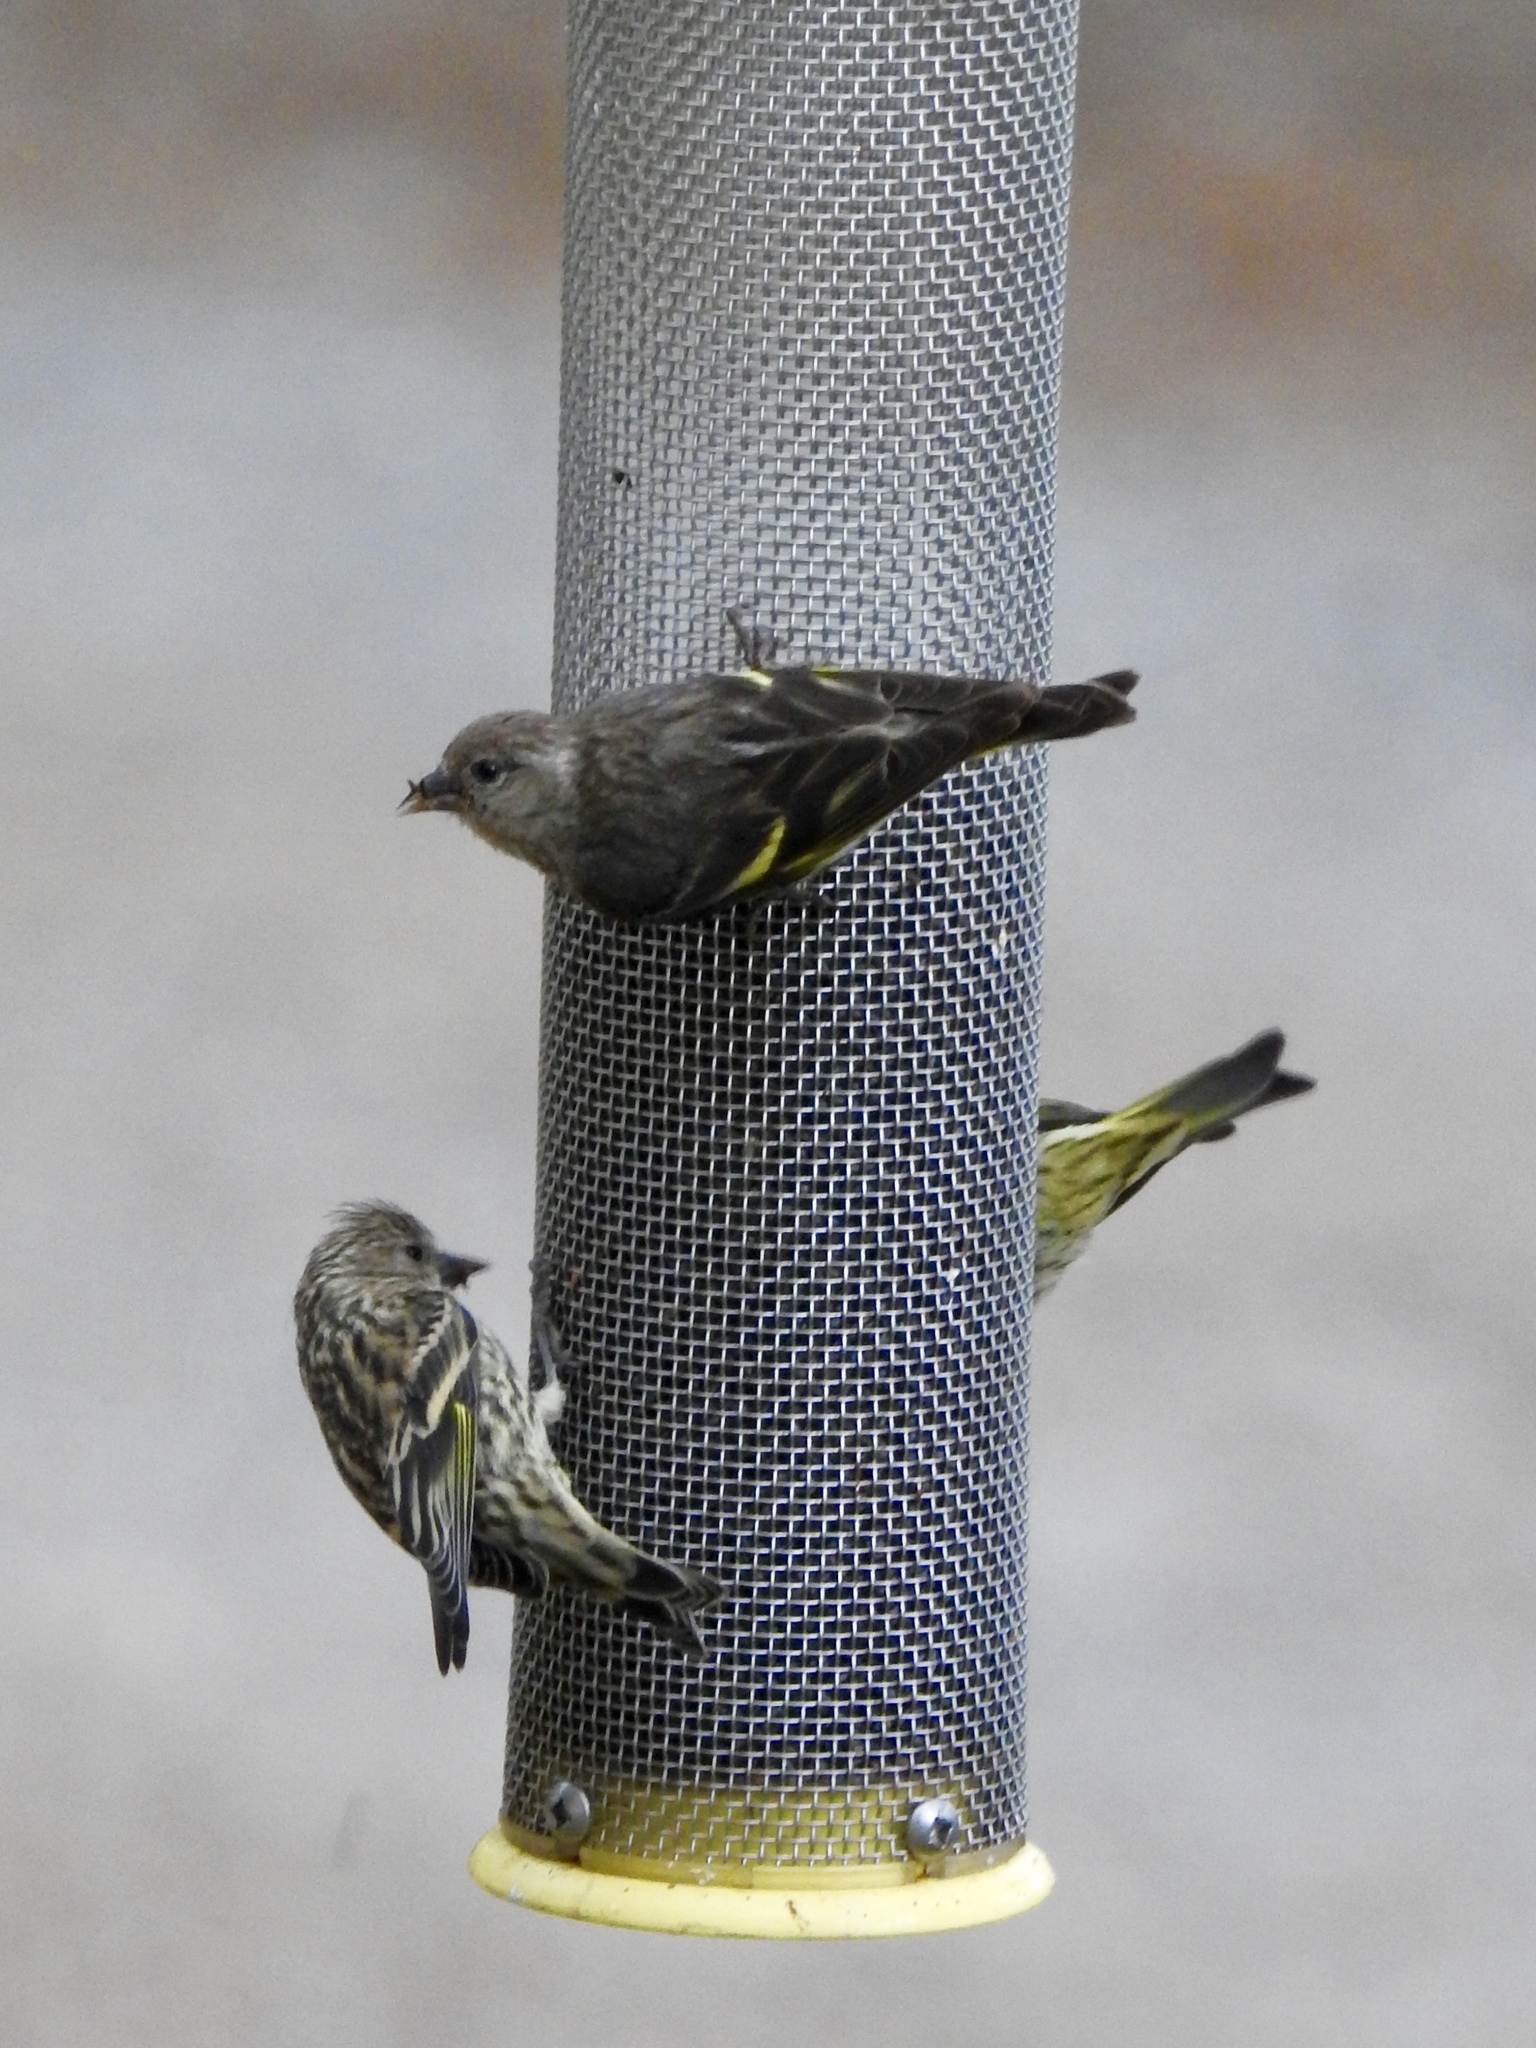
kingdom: Animalia
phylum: Chordata
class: Aves
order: Passeriformes
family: Fringillidae
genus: Spinus
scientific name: Spinus pinus
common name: Pine siskin
